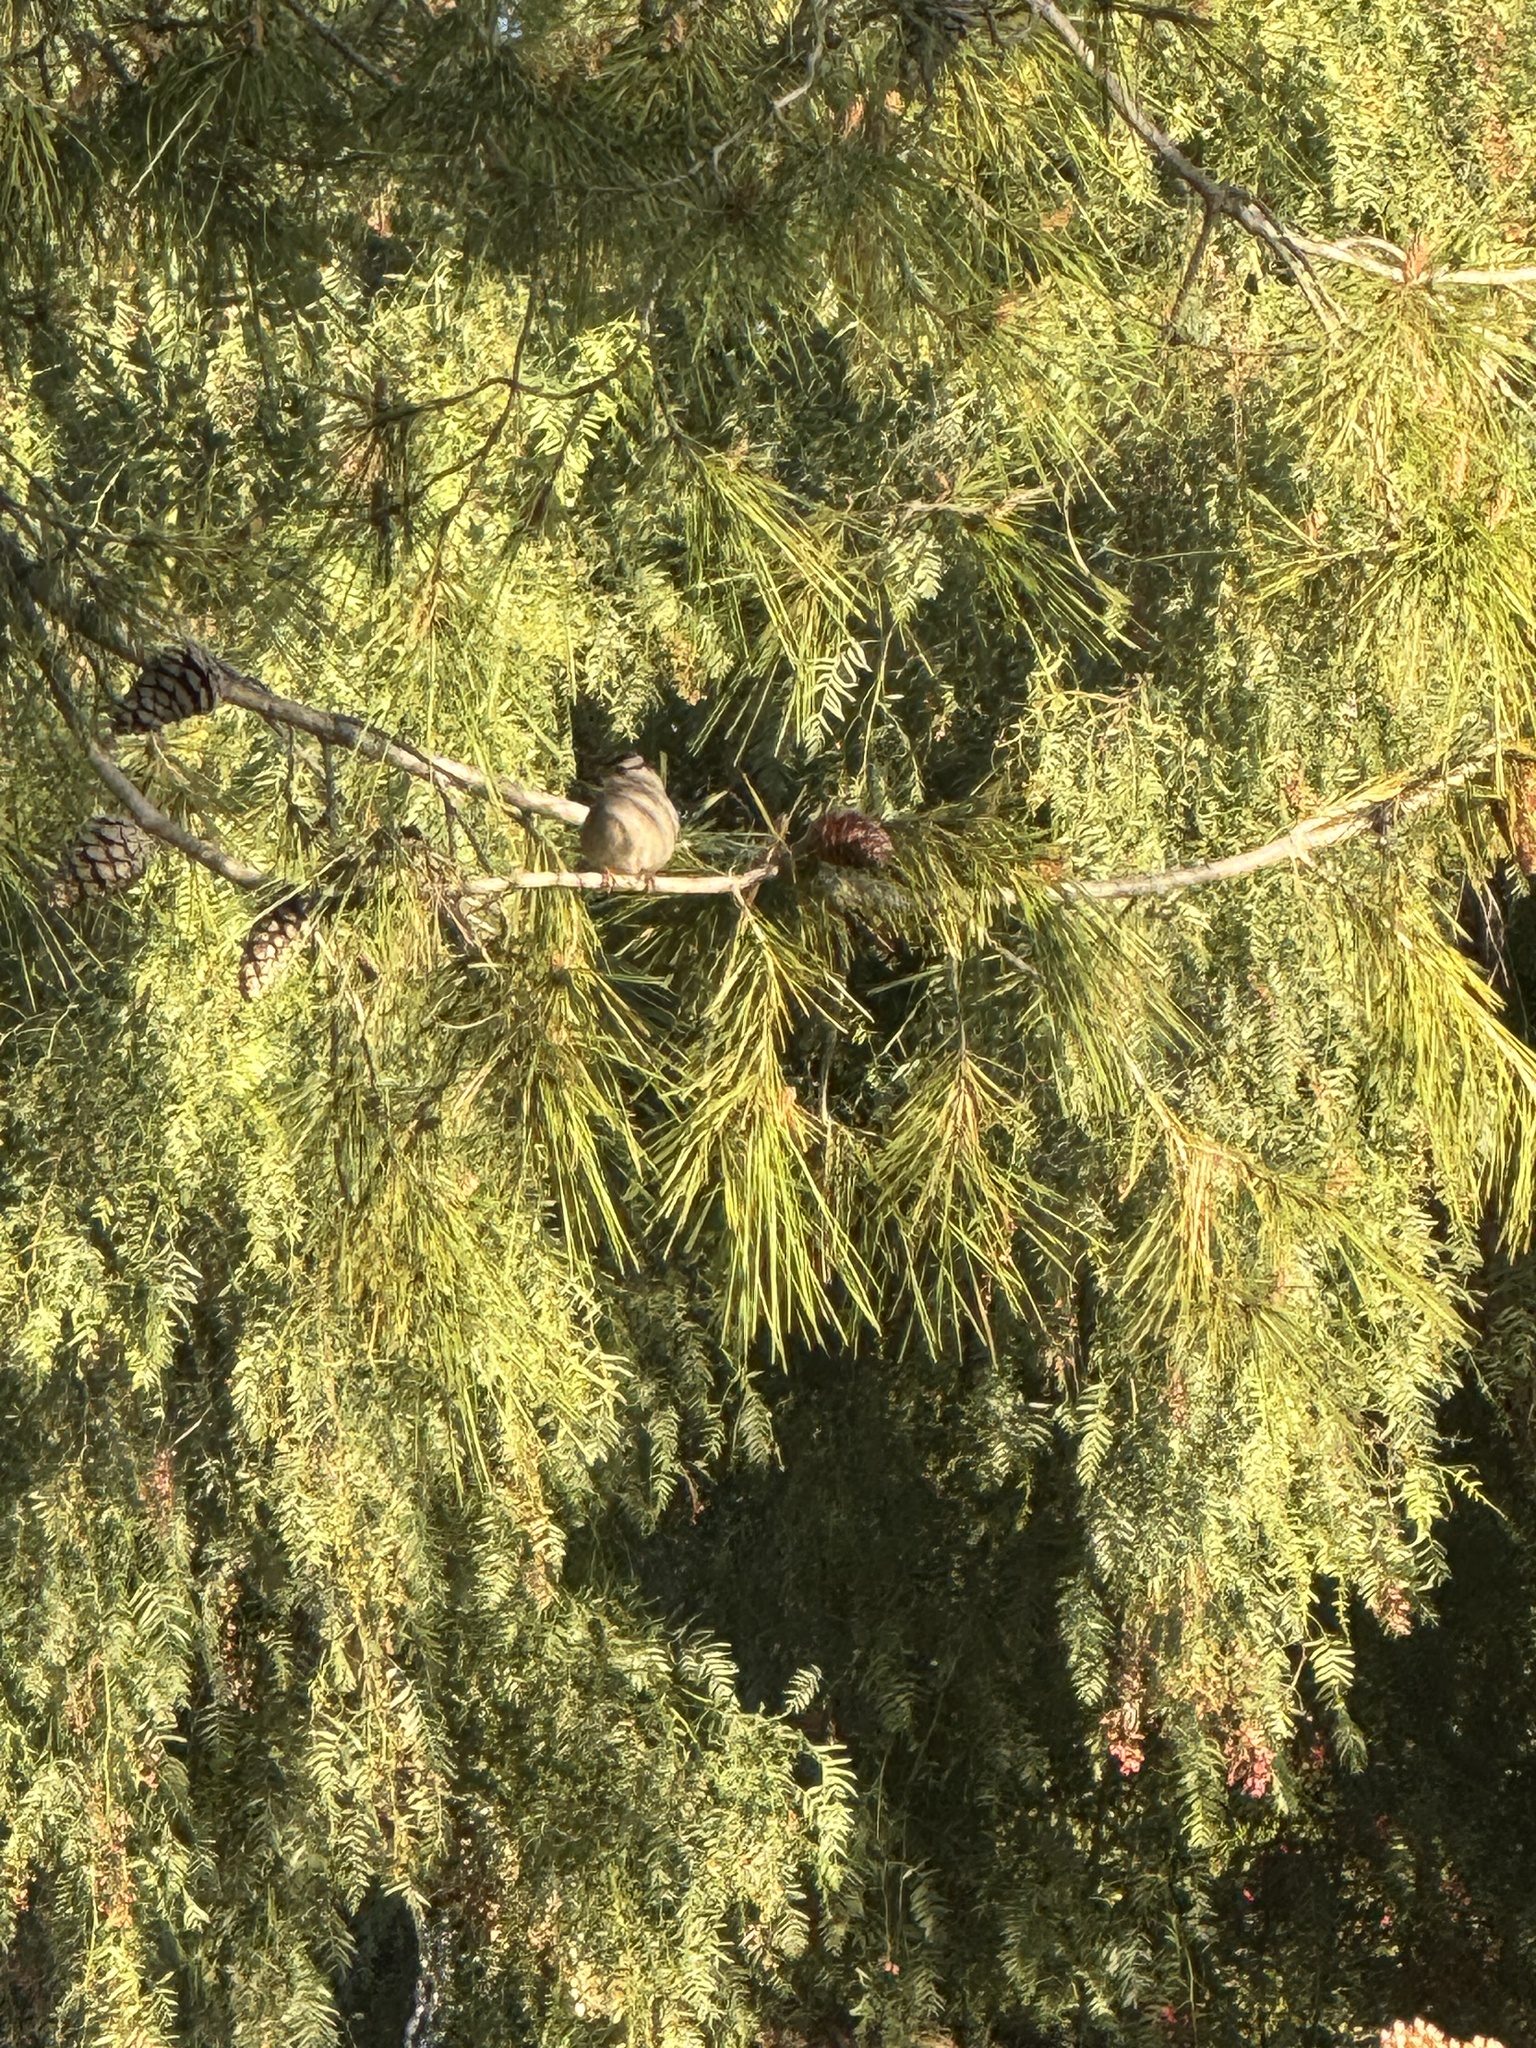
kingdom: Animalia
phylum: Chordata
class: Aves
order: Passeriformes
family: Passerellidae
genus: Zonotrichia
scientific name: Zonotrichia leucophrys
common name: White-crowned sparrow
